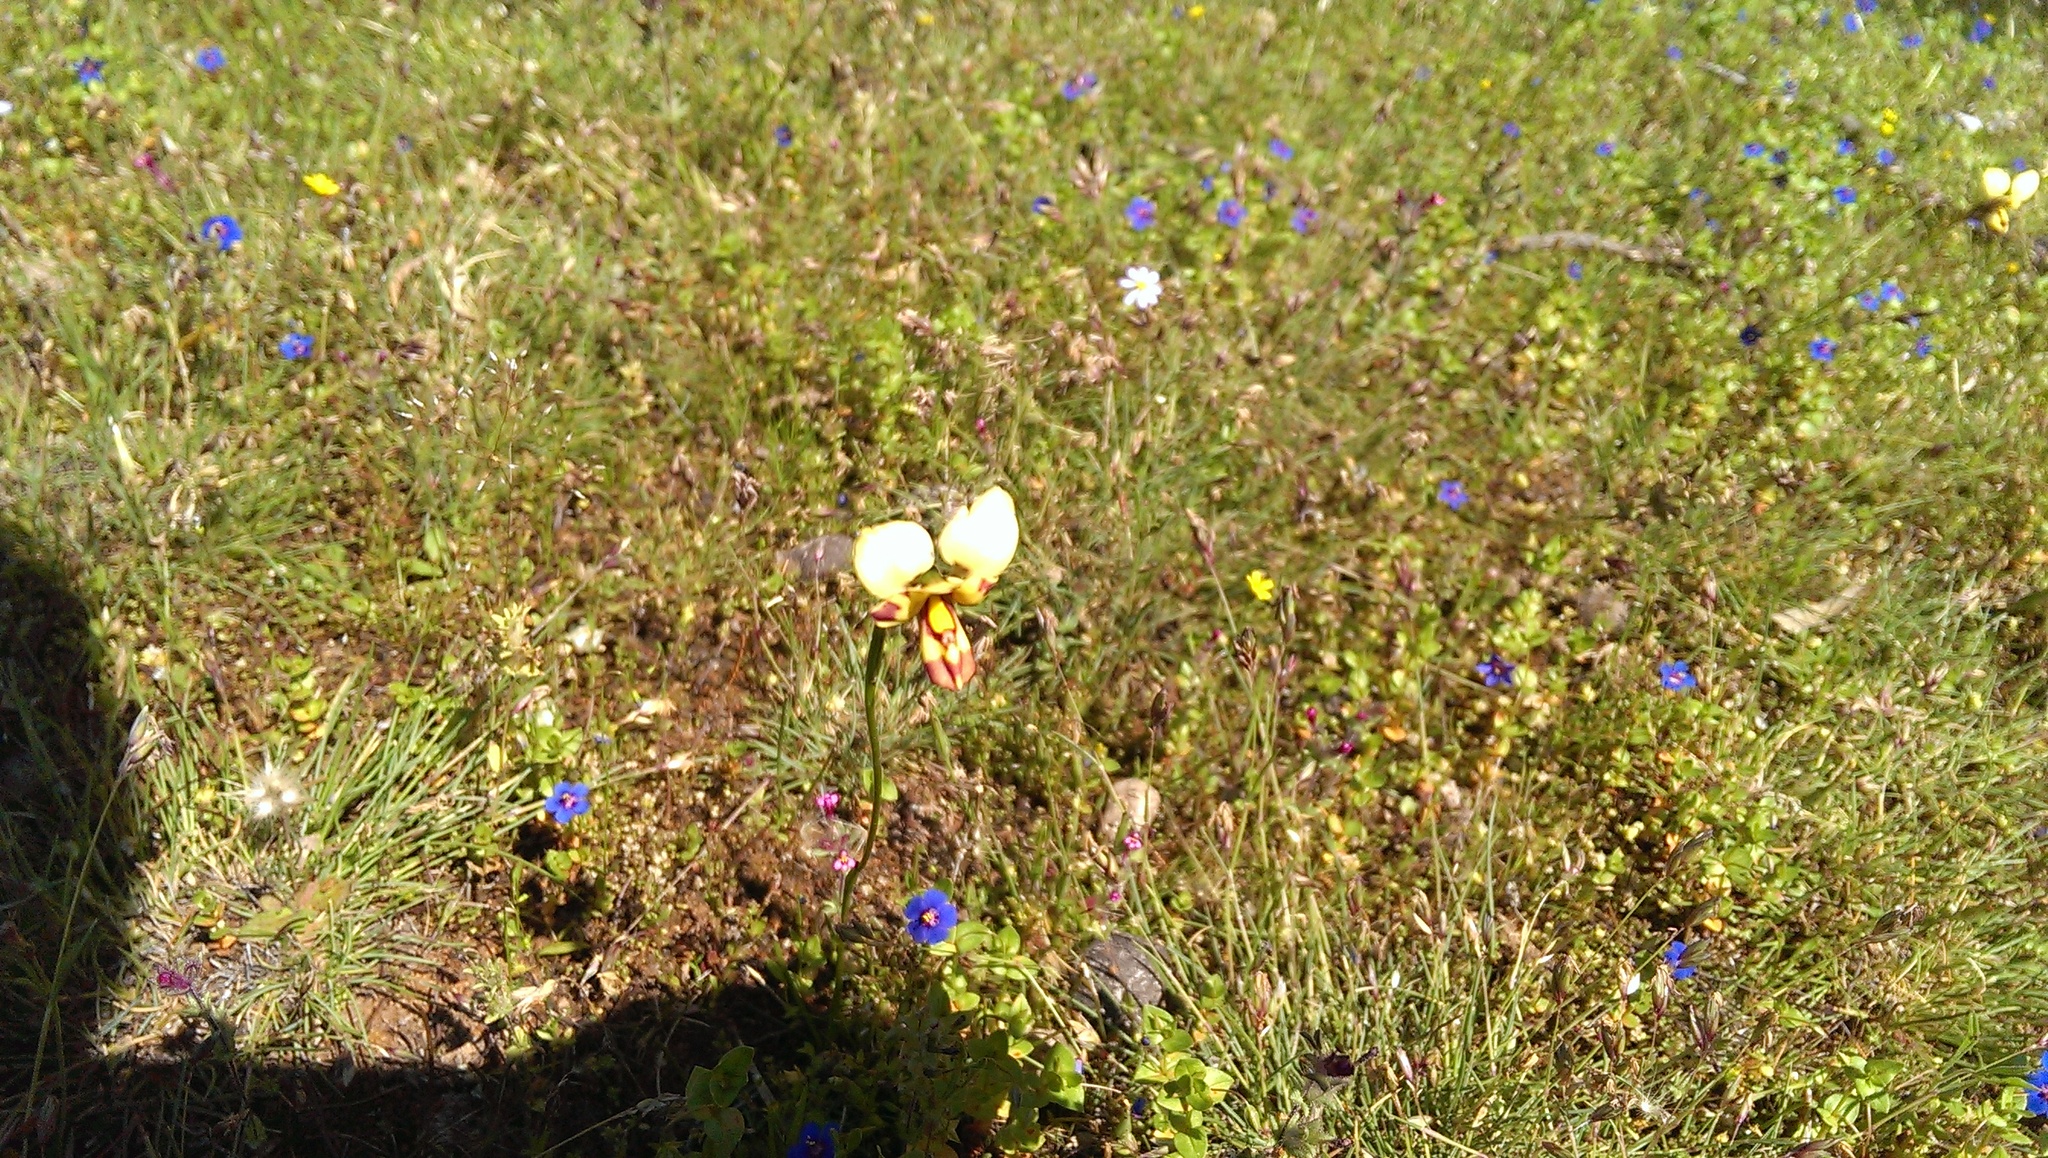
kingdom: Plantae
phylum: Tracheophyta
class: Liliopsida
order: Asparagales
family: Orchidaceae
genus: Diuris
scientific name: Diuris picta
